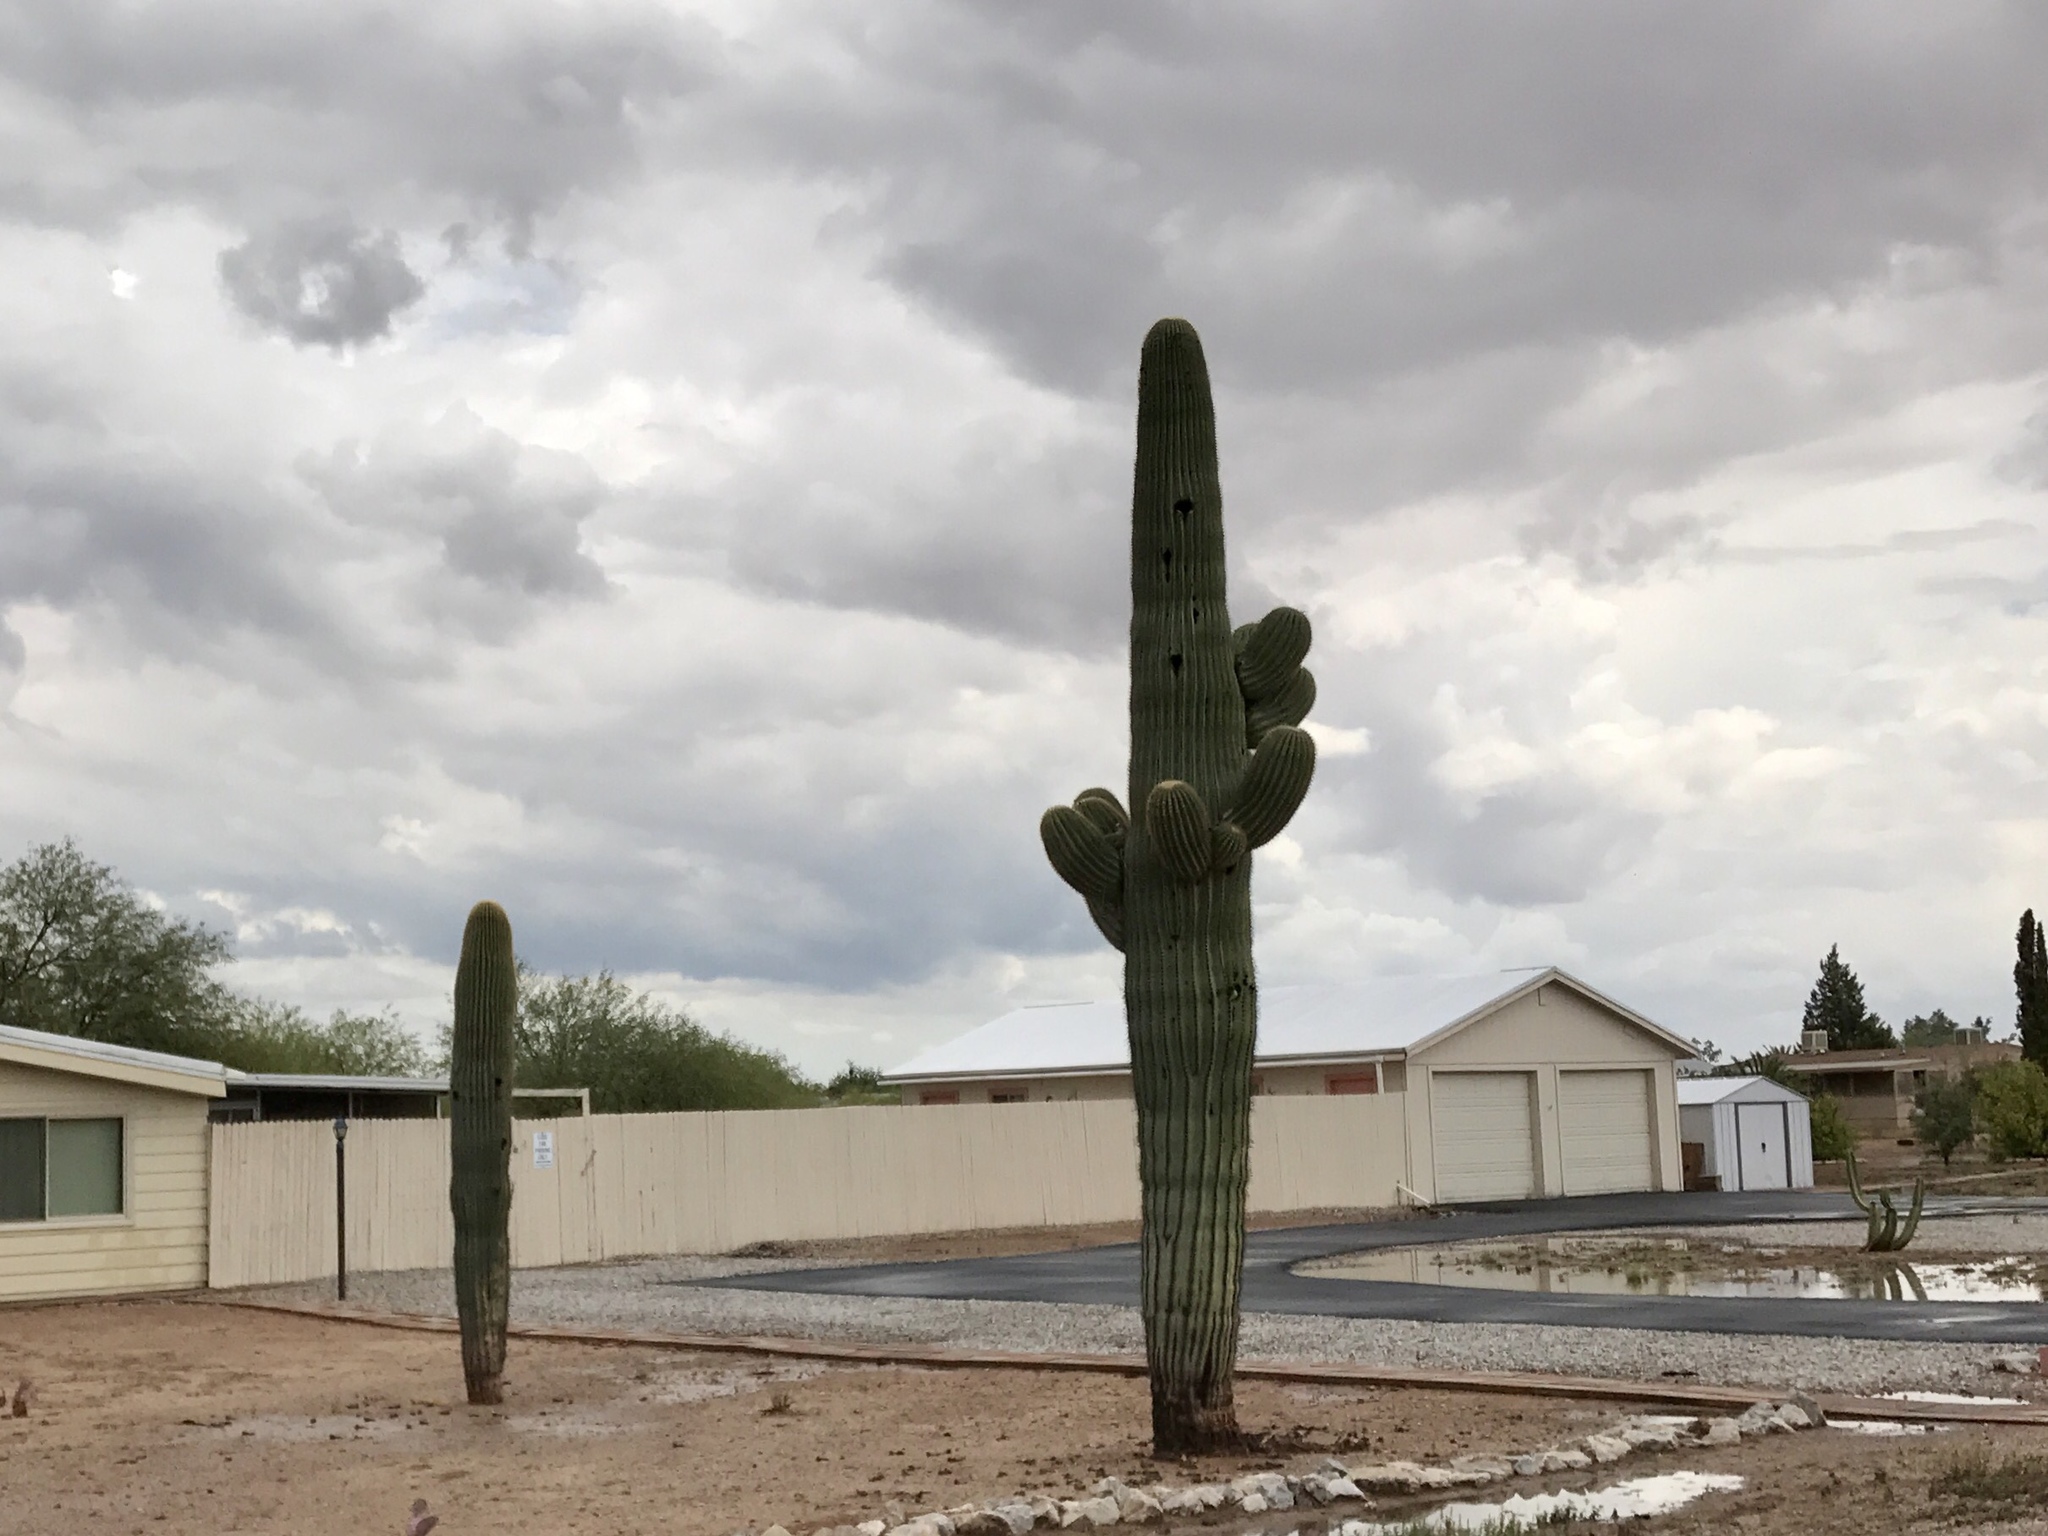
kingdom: Plantae
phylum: Tracheophyta
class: Magnoliopsida
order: Caryophyllales
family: Cactaceae
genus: Carnegiea
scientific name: Carnegiea gigantea
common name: Saguaro
